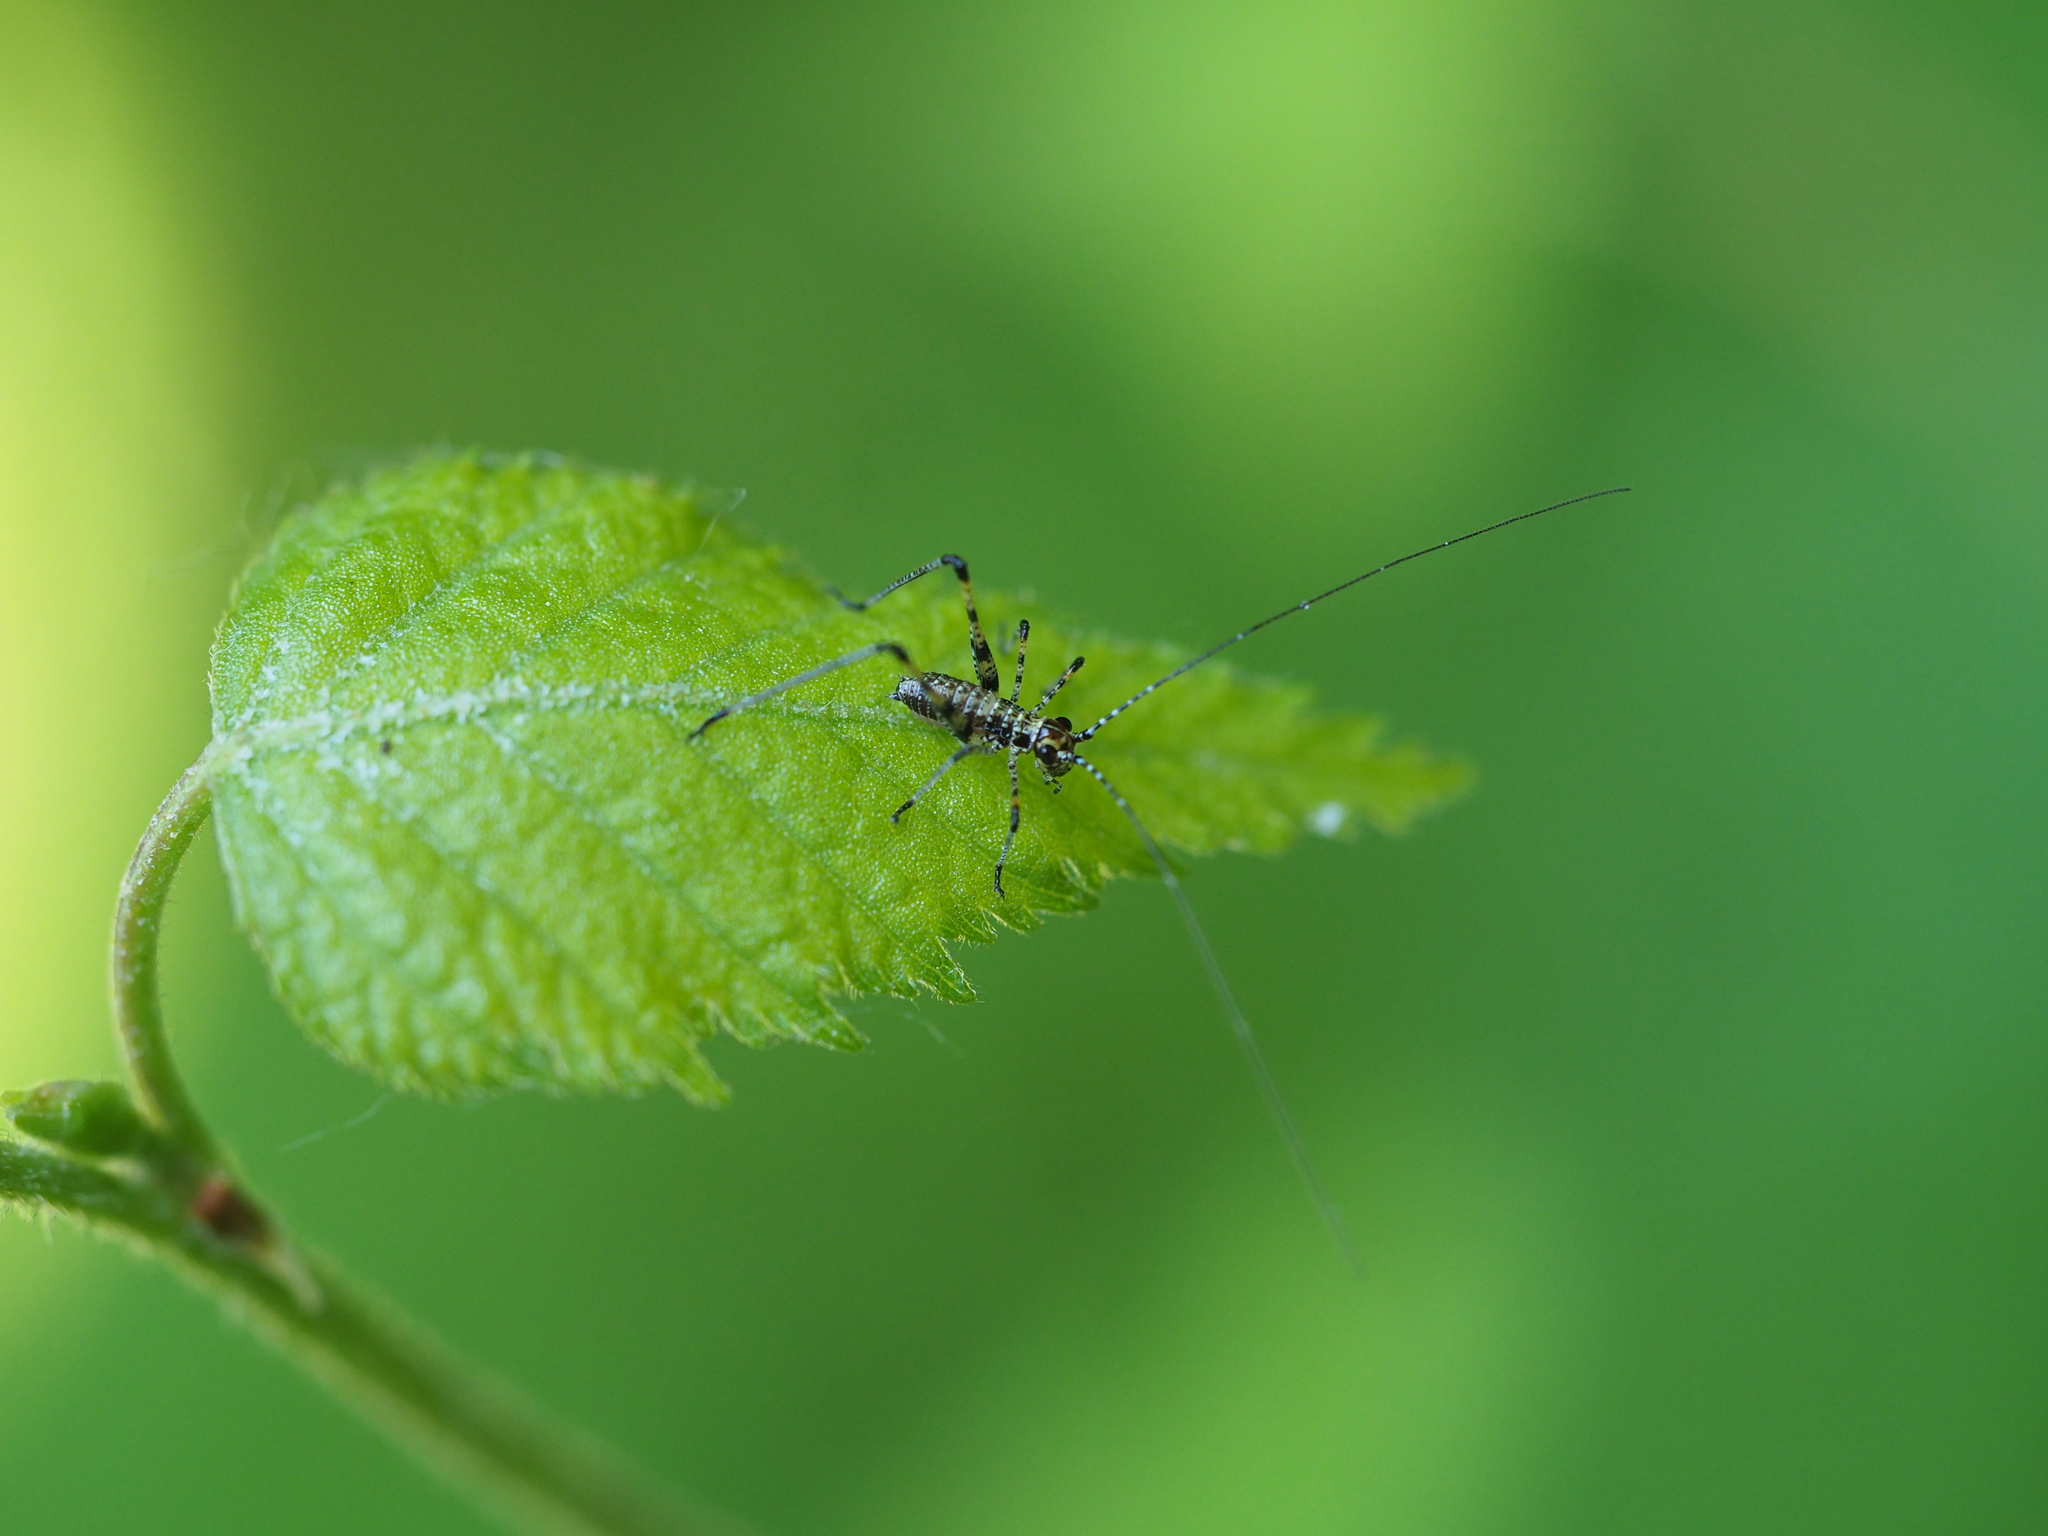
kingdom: Animalia
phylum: Arthropoda
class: Insecta
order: Orthoptera
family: Tettigoniidae
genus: Phaneroptera
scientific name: Phaneroptera nana
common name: Southern sickle bush-cricket
